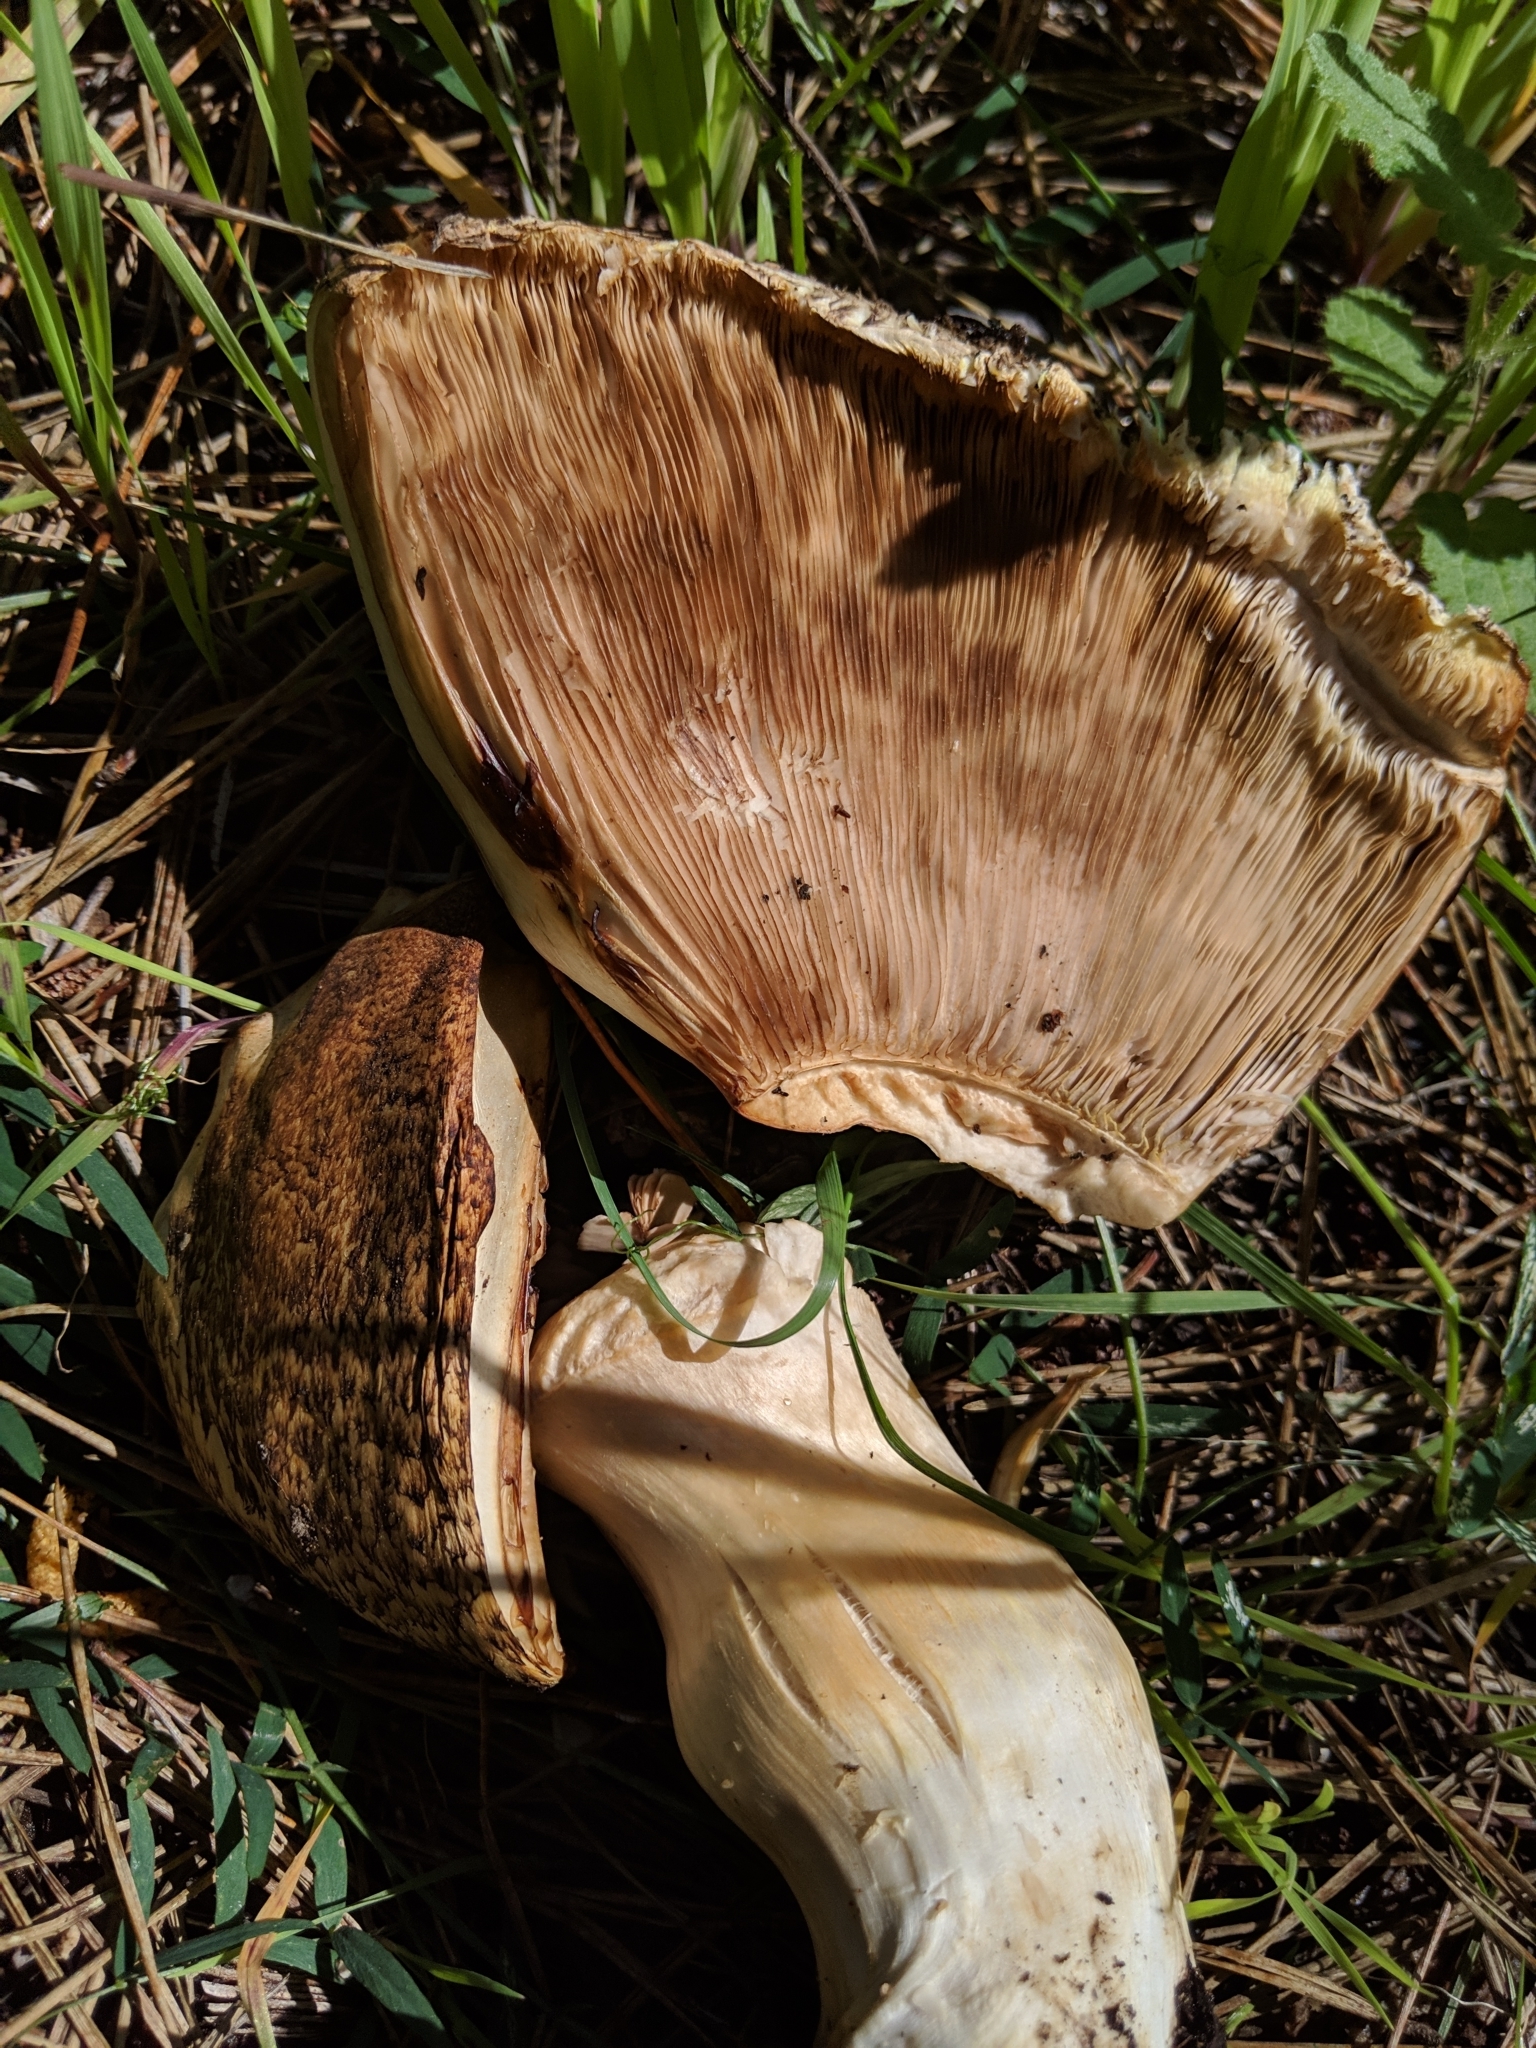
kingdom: Fungi
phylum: Basidiomycota
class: Agaricomycetes
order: Agaricales
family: Agaricaceae
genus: Agaricus
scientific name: Agaricus augustus
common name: Prince
